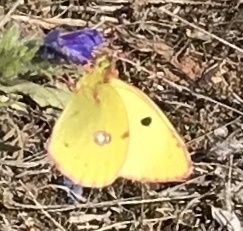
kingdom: Animalia
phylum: Arthropoda
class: Insecta
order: Lepidoptera
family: Pieridae
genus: Colias
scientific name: Colias croceus
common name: Clouded yellow
